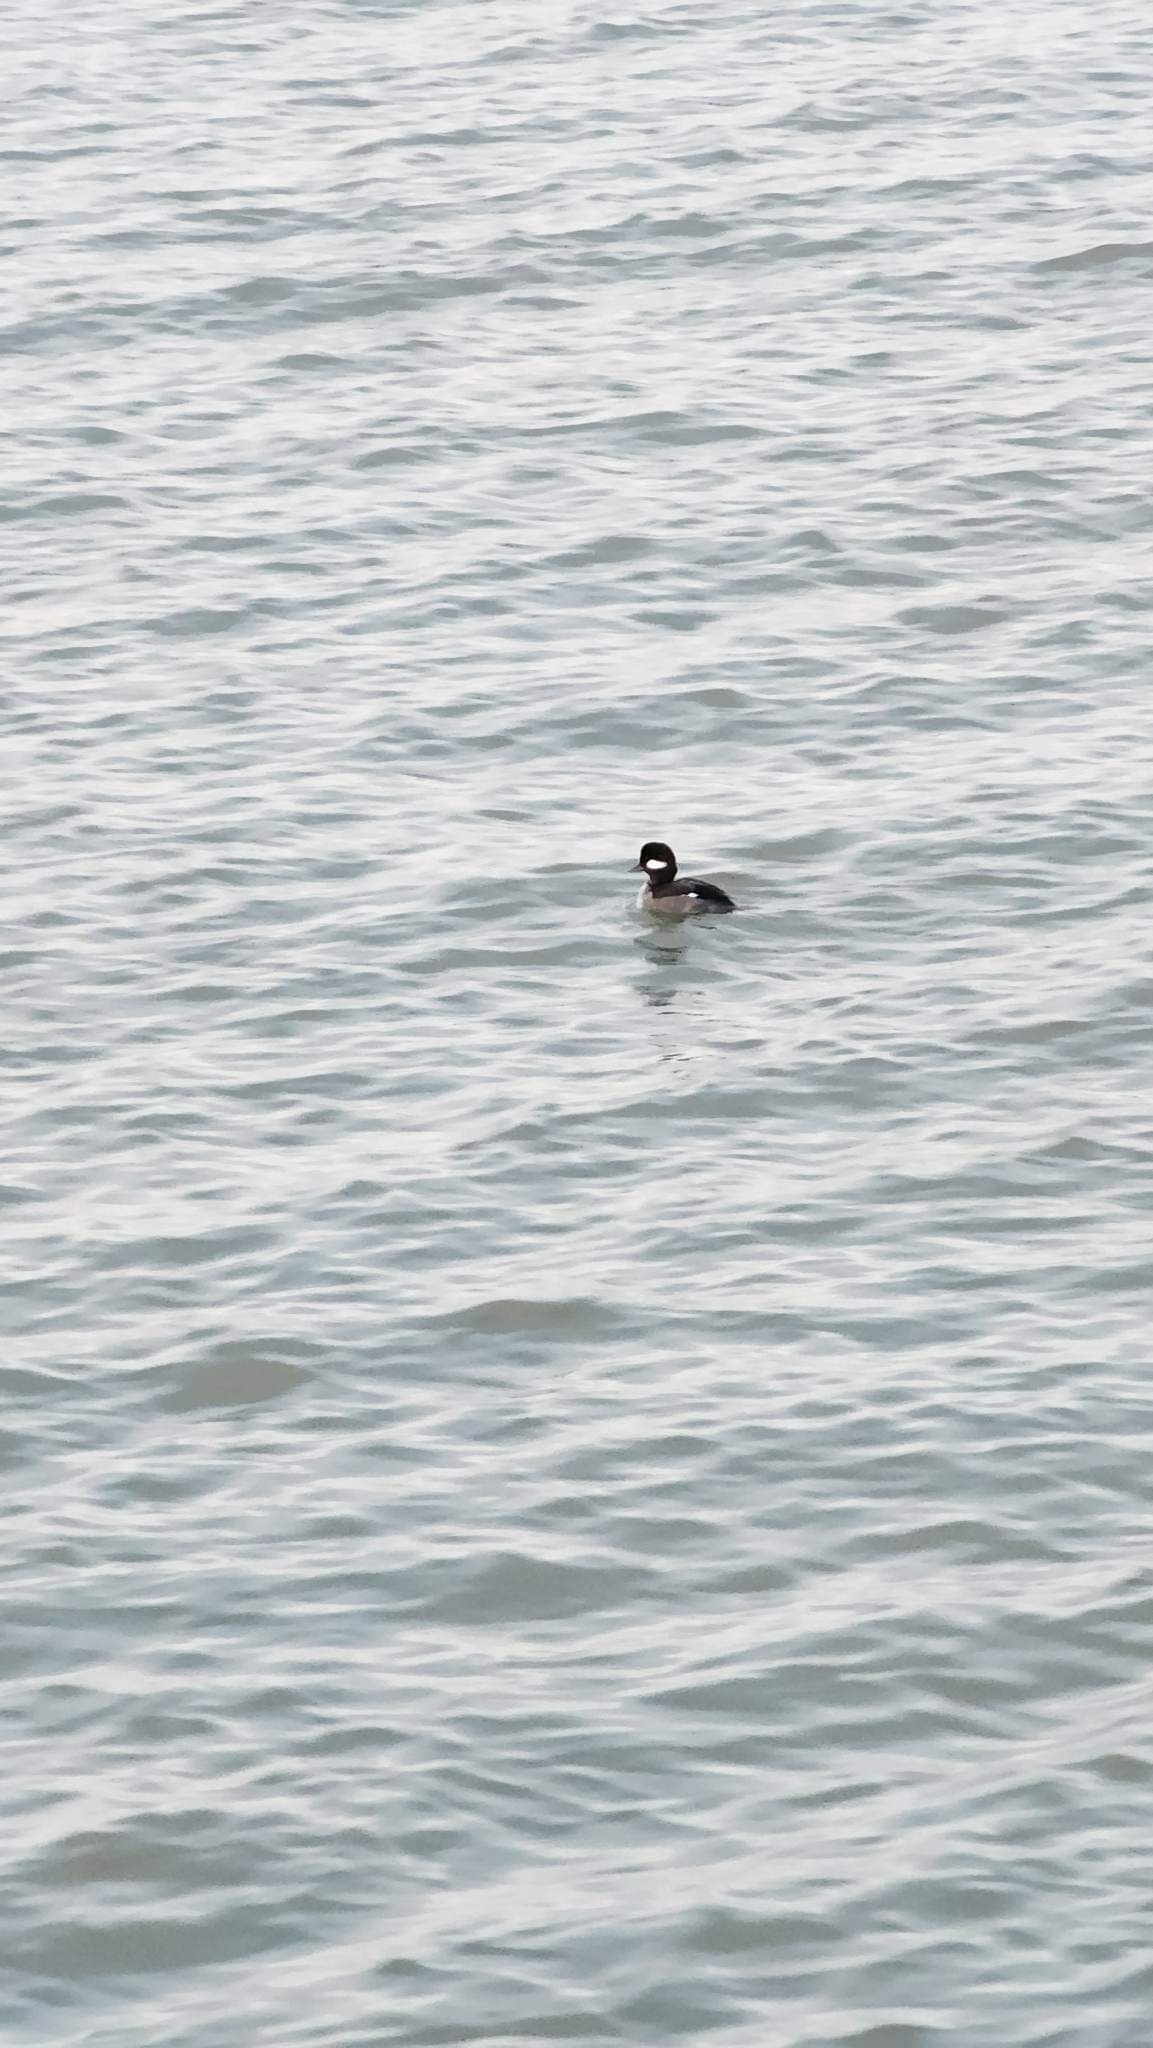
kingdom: Animalia
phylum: Chordata
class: Aves
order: Anseriformes
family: Anatidae
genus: Bucephala
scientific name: Bucephala albeola
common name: Bufflehead
